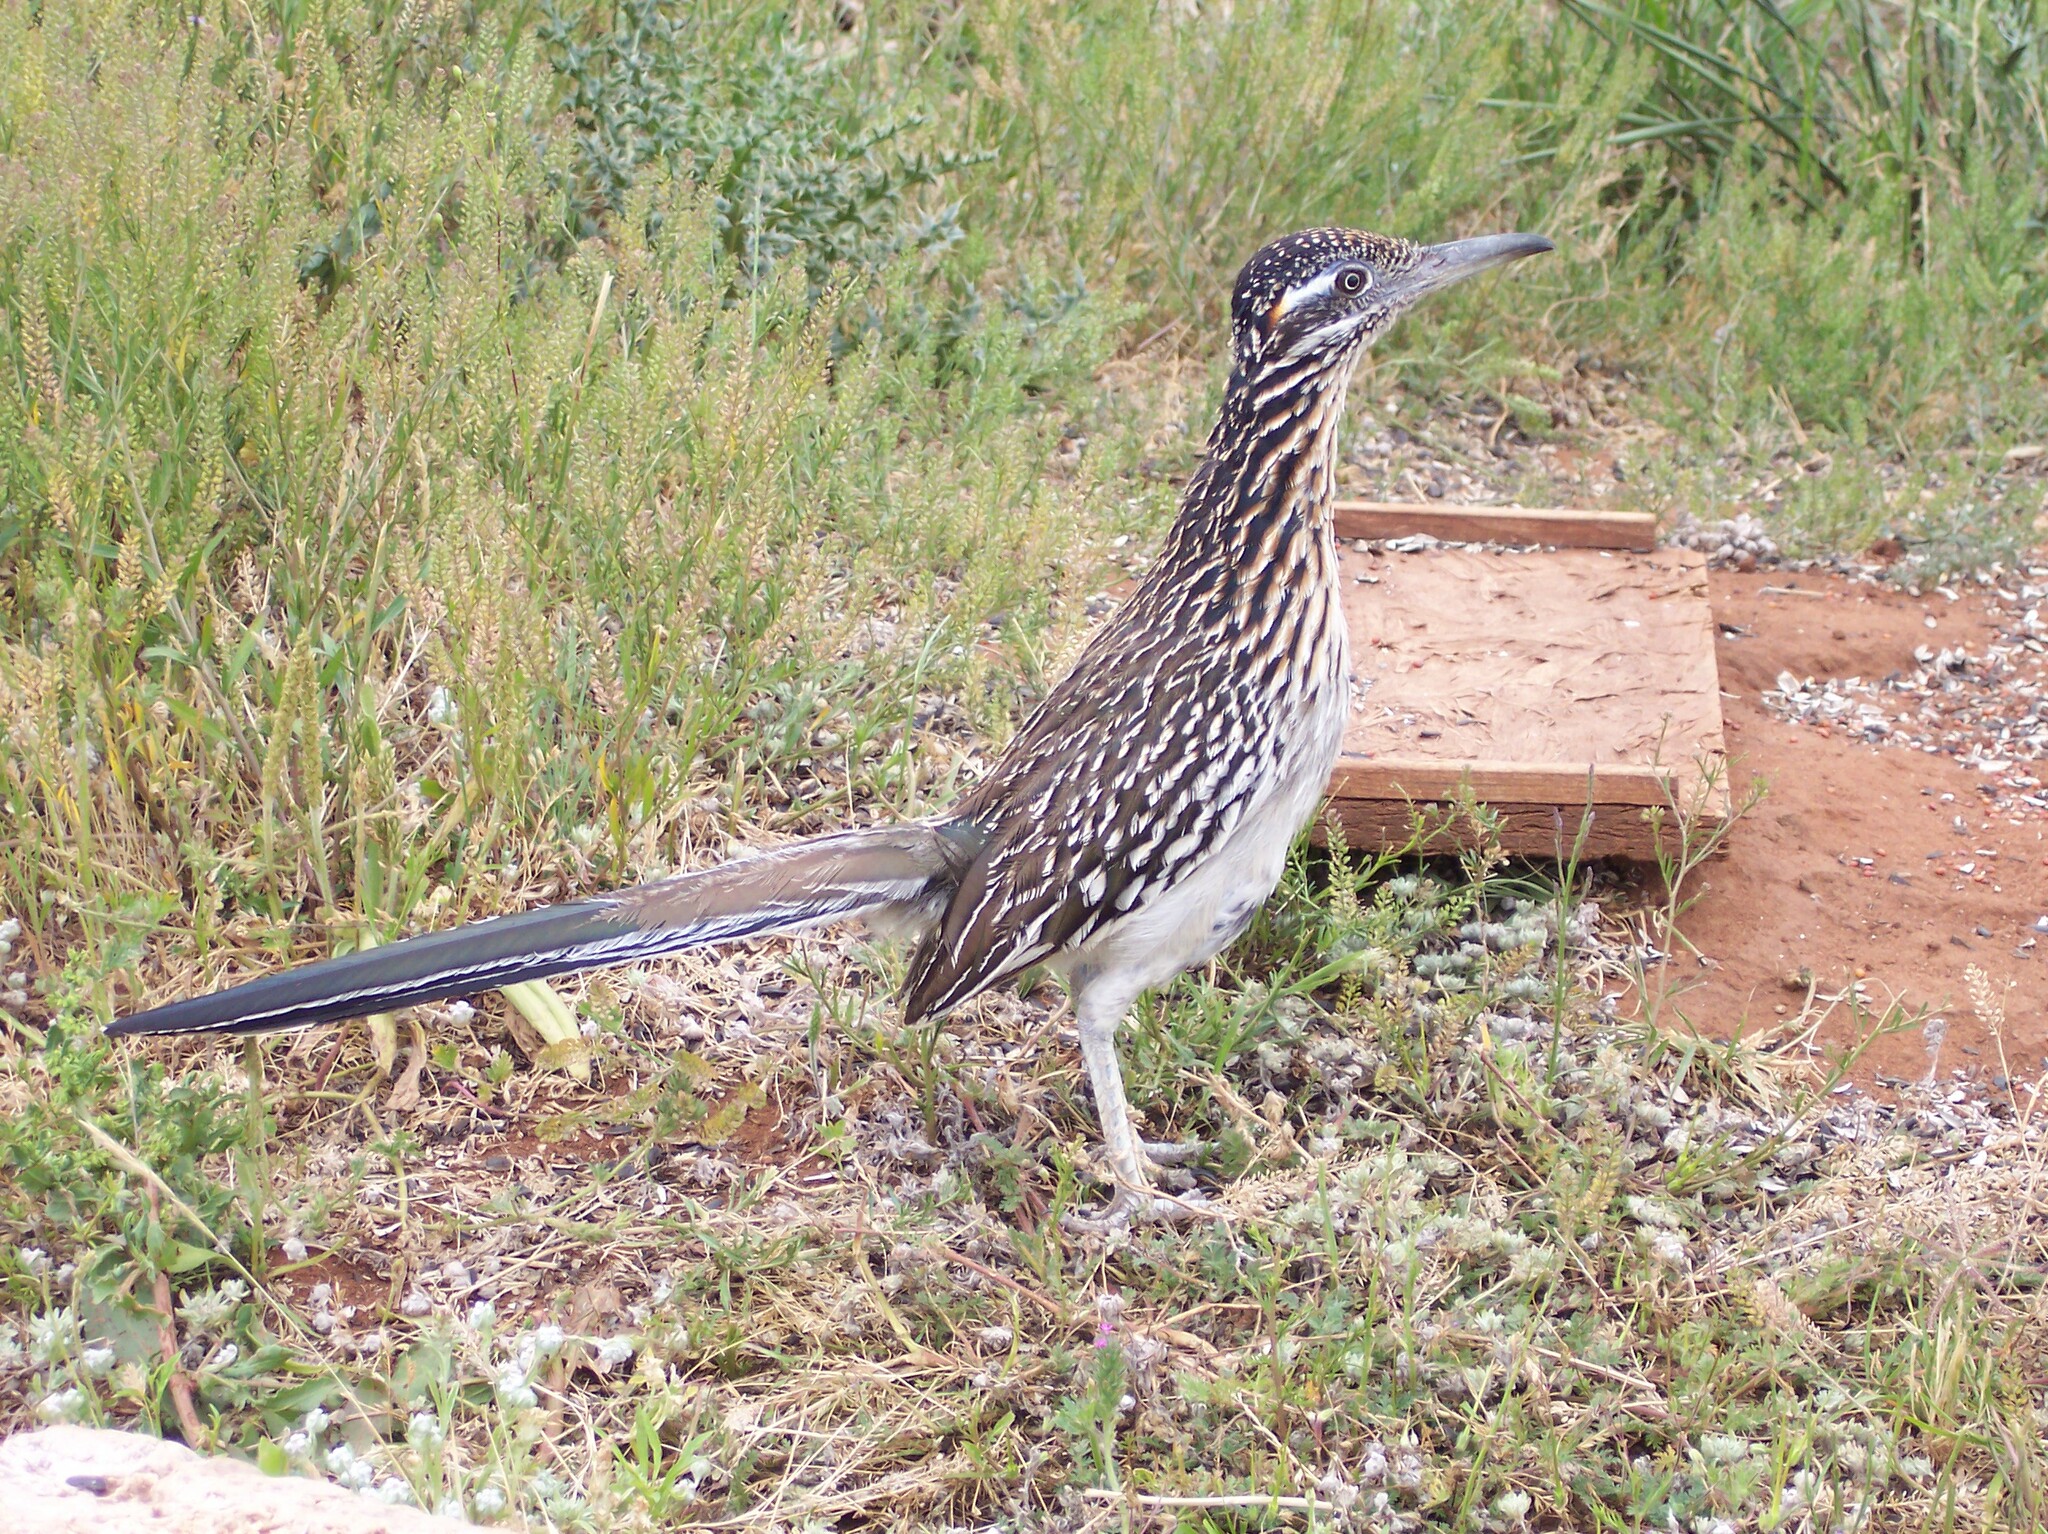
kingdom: Animalia
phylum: Chordata
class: Aves
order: Cuculiformes
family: Cuculidae
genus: Geococcyx
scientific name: Geococcyx californianus
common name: Greater roadrunner
